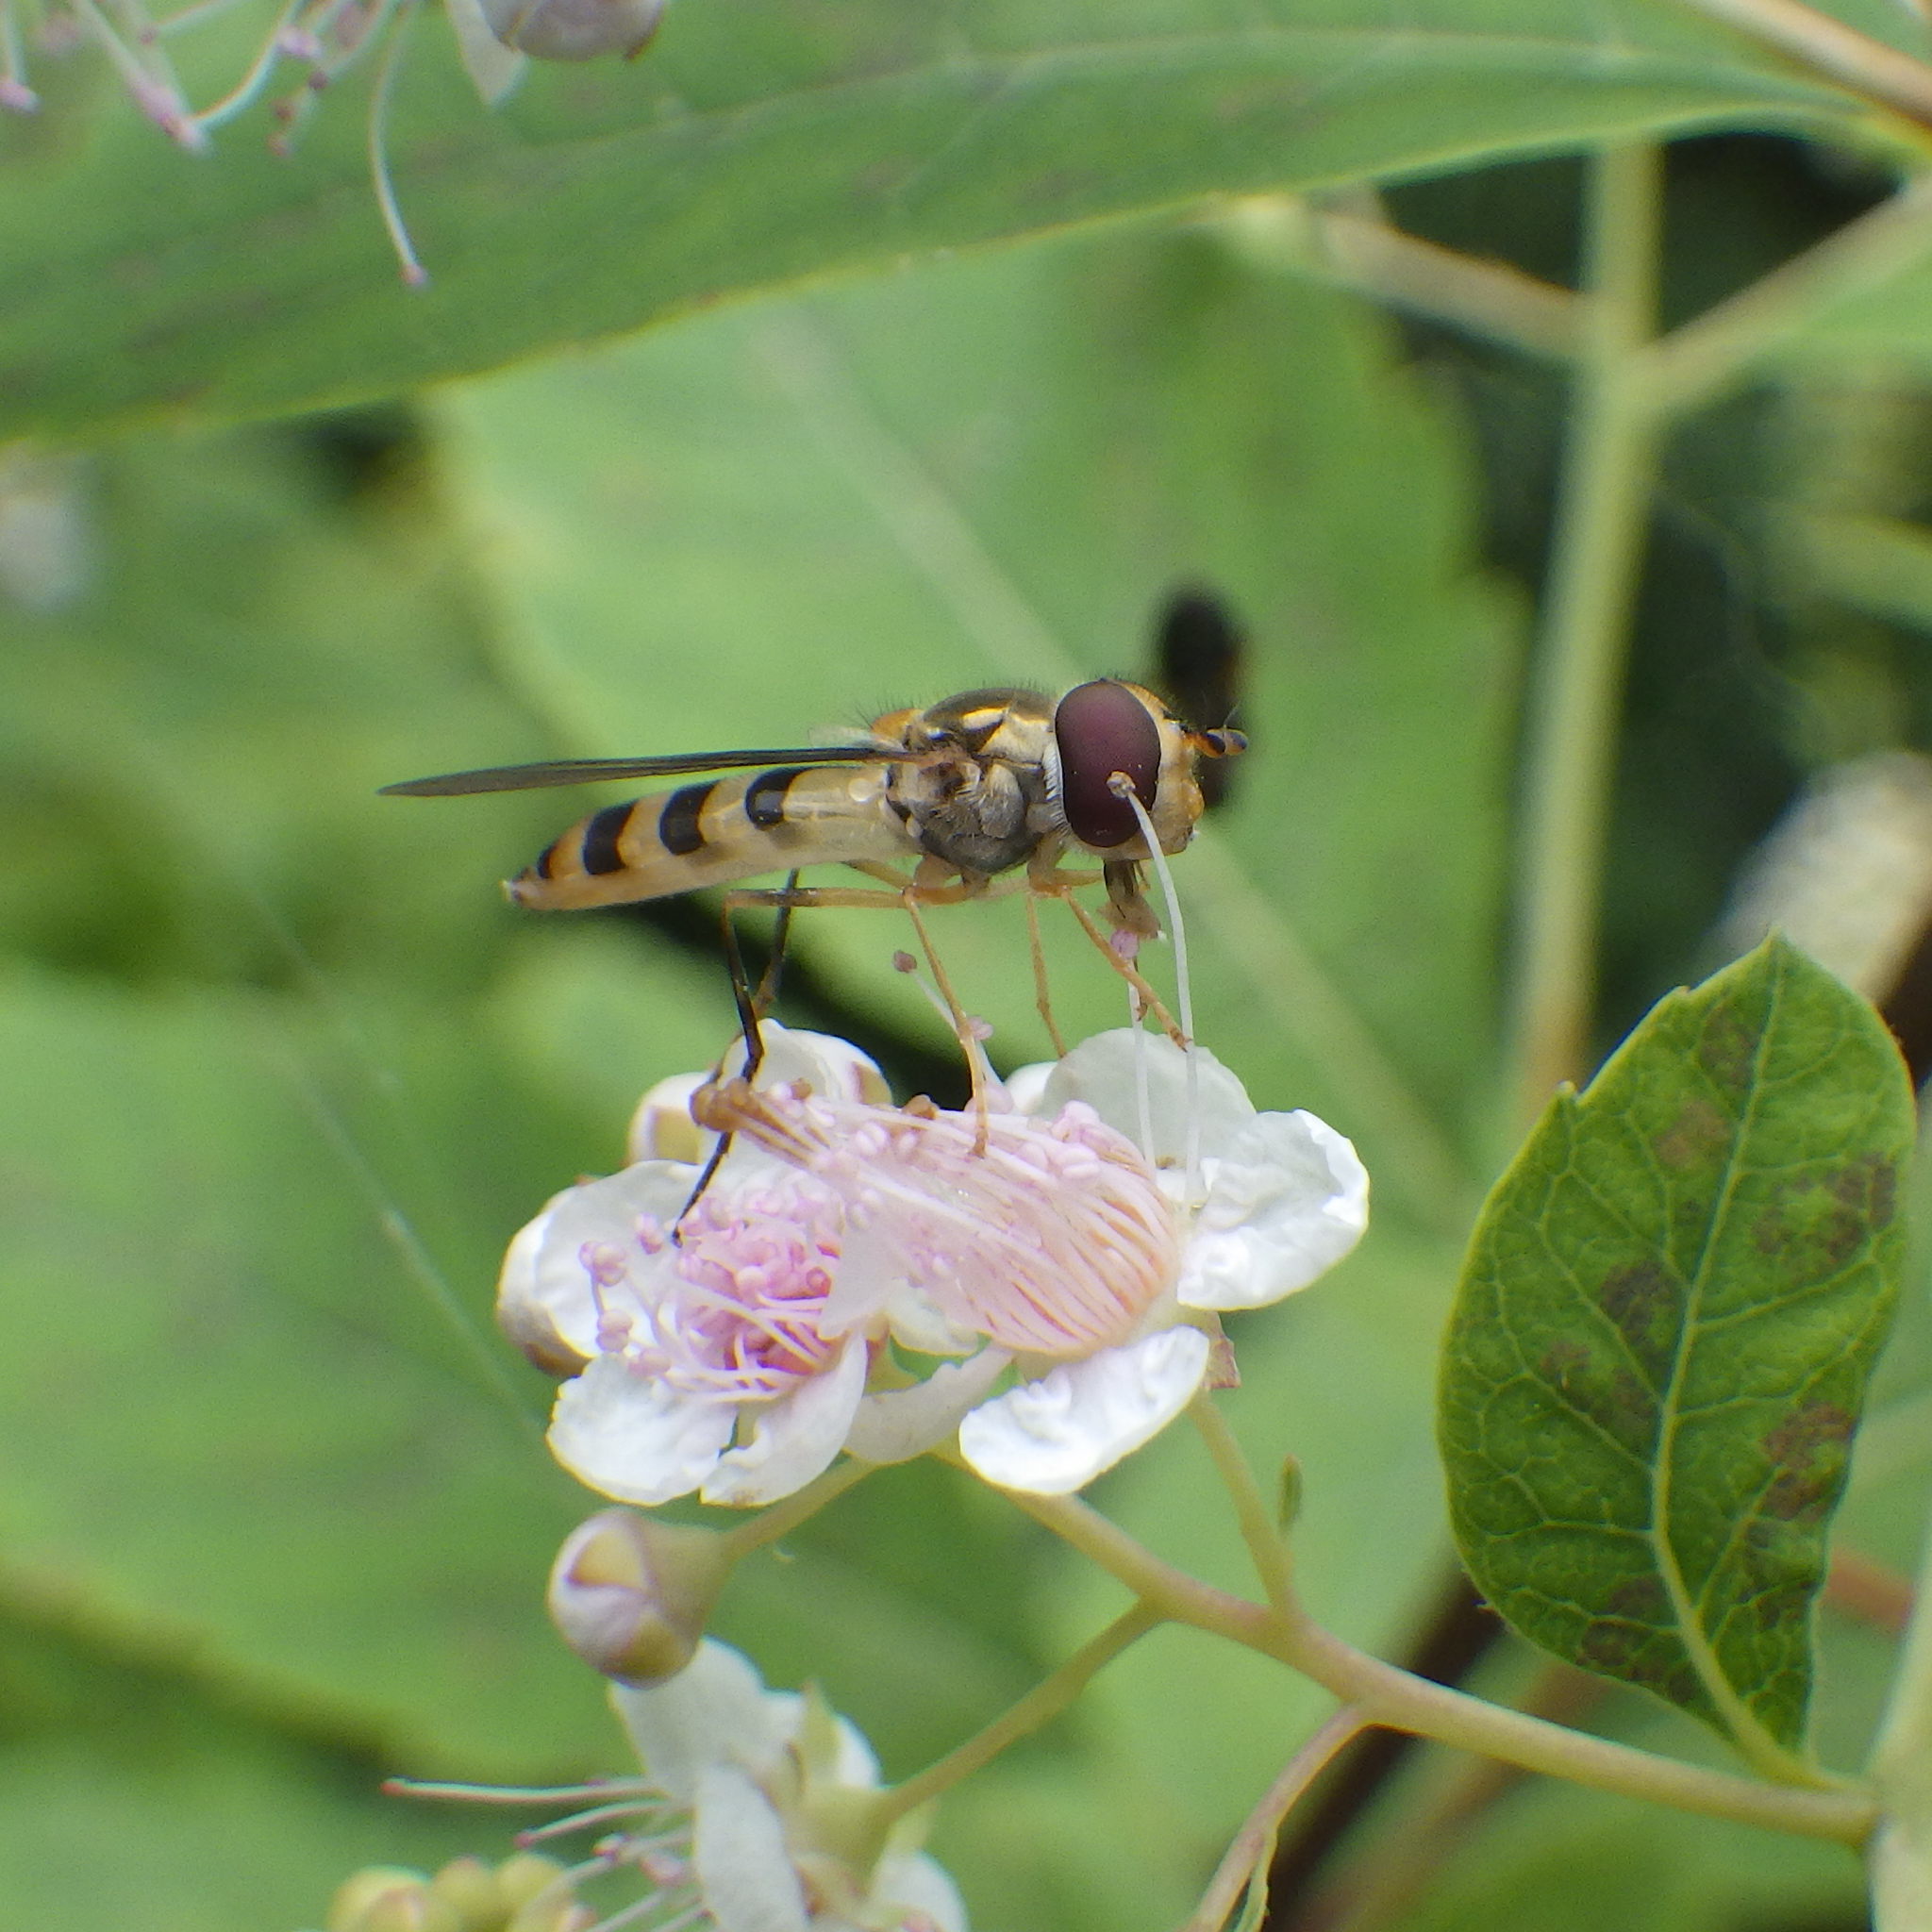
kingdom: Animalia
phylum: Arthropoda
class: Insecta
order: Diptera
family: Syrphidae
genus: Meliscaeva
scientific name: Meliscaeva cinctella
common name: American thintail fly
